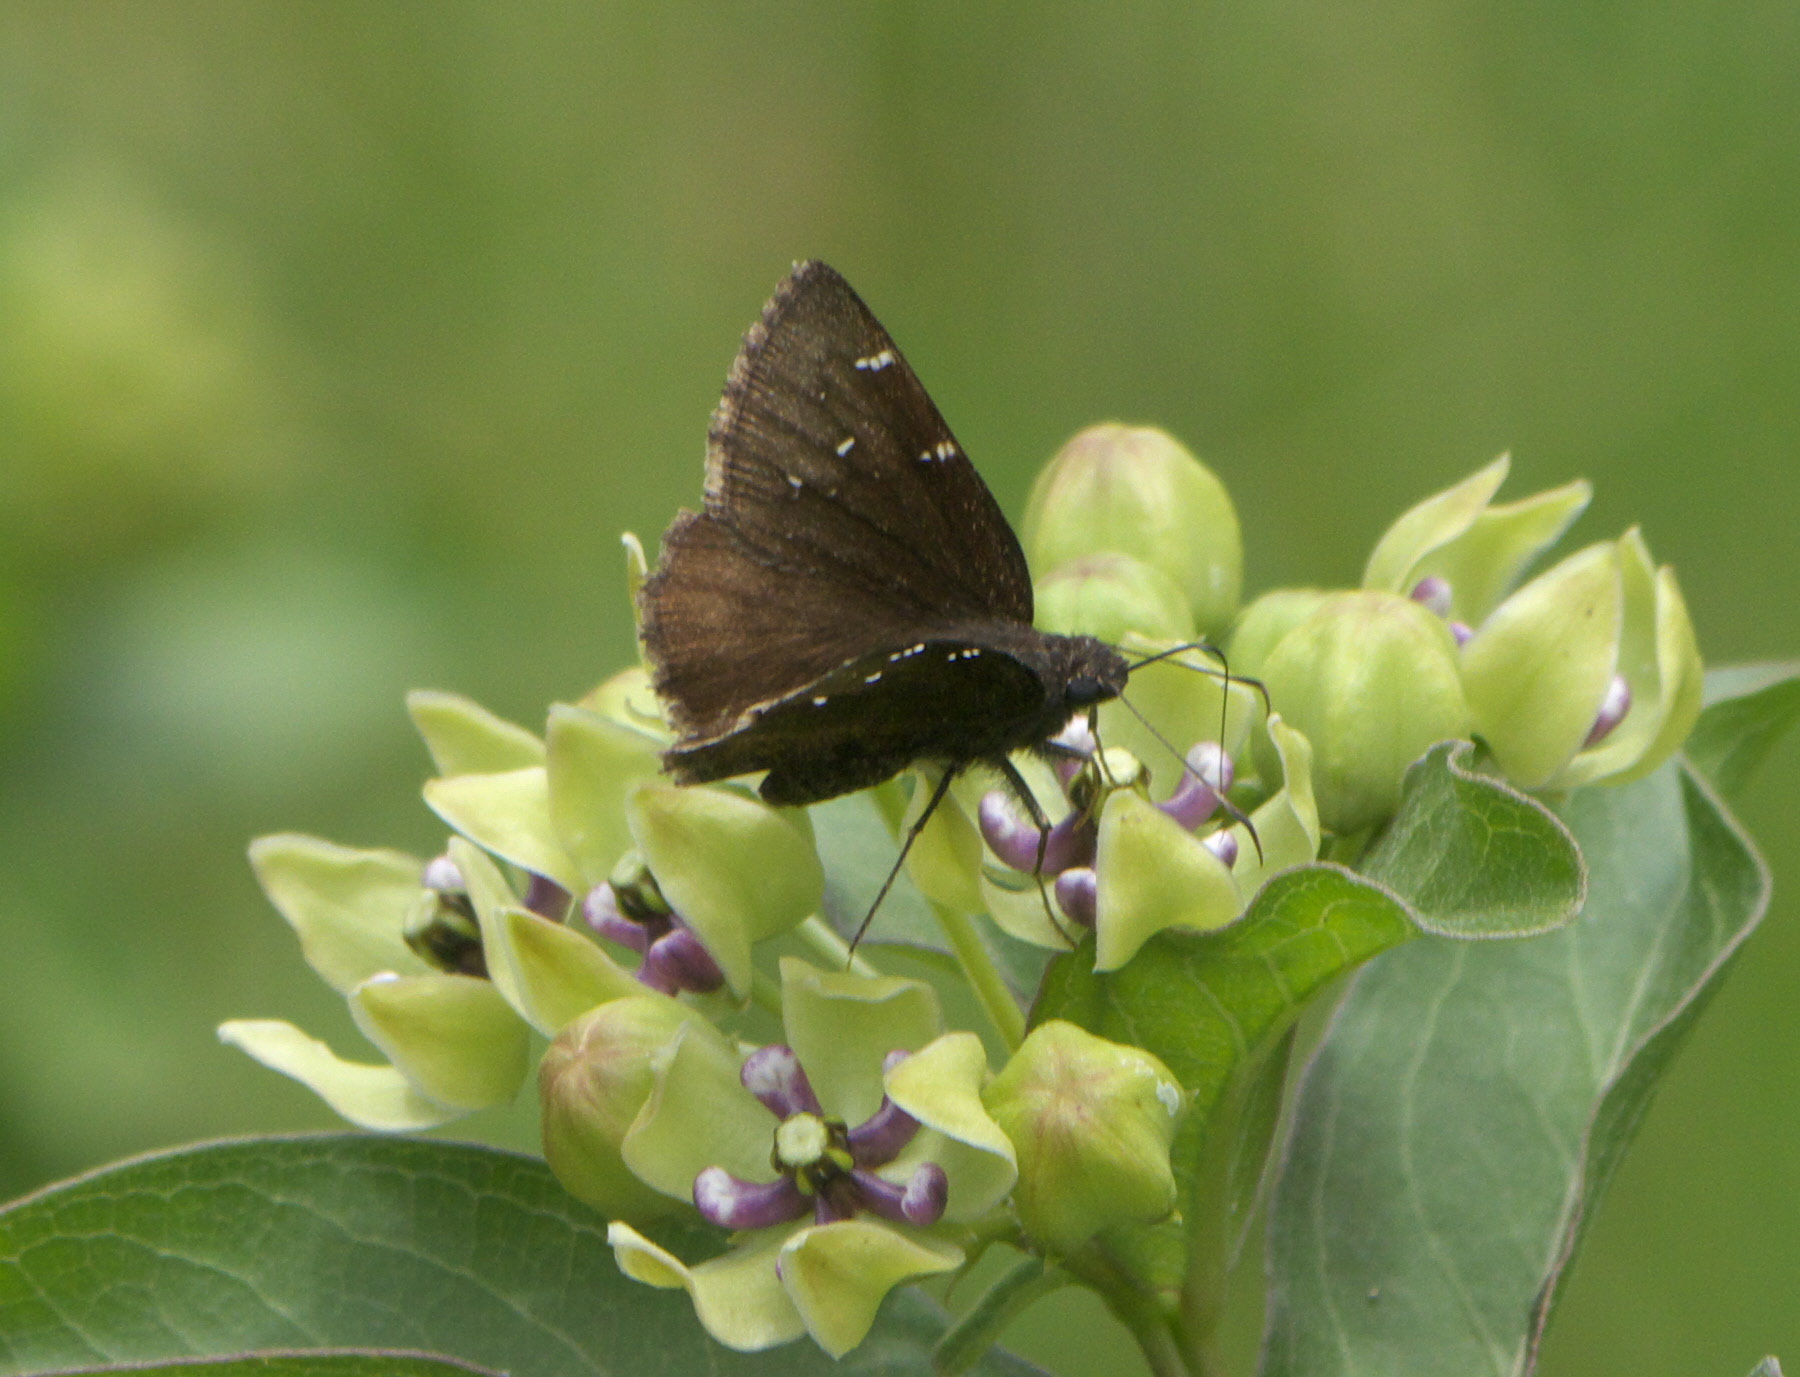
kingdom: Animalia
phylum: Arthropoda
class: Insecta
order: Lepidoptera
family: Hesperiidae
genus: Thorybes
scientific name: Thorybes pylades
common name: Northern cloudywing
